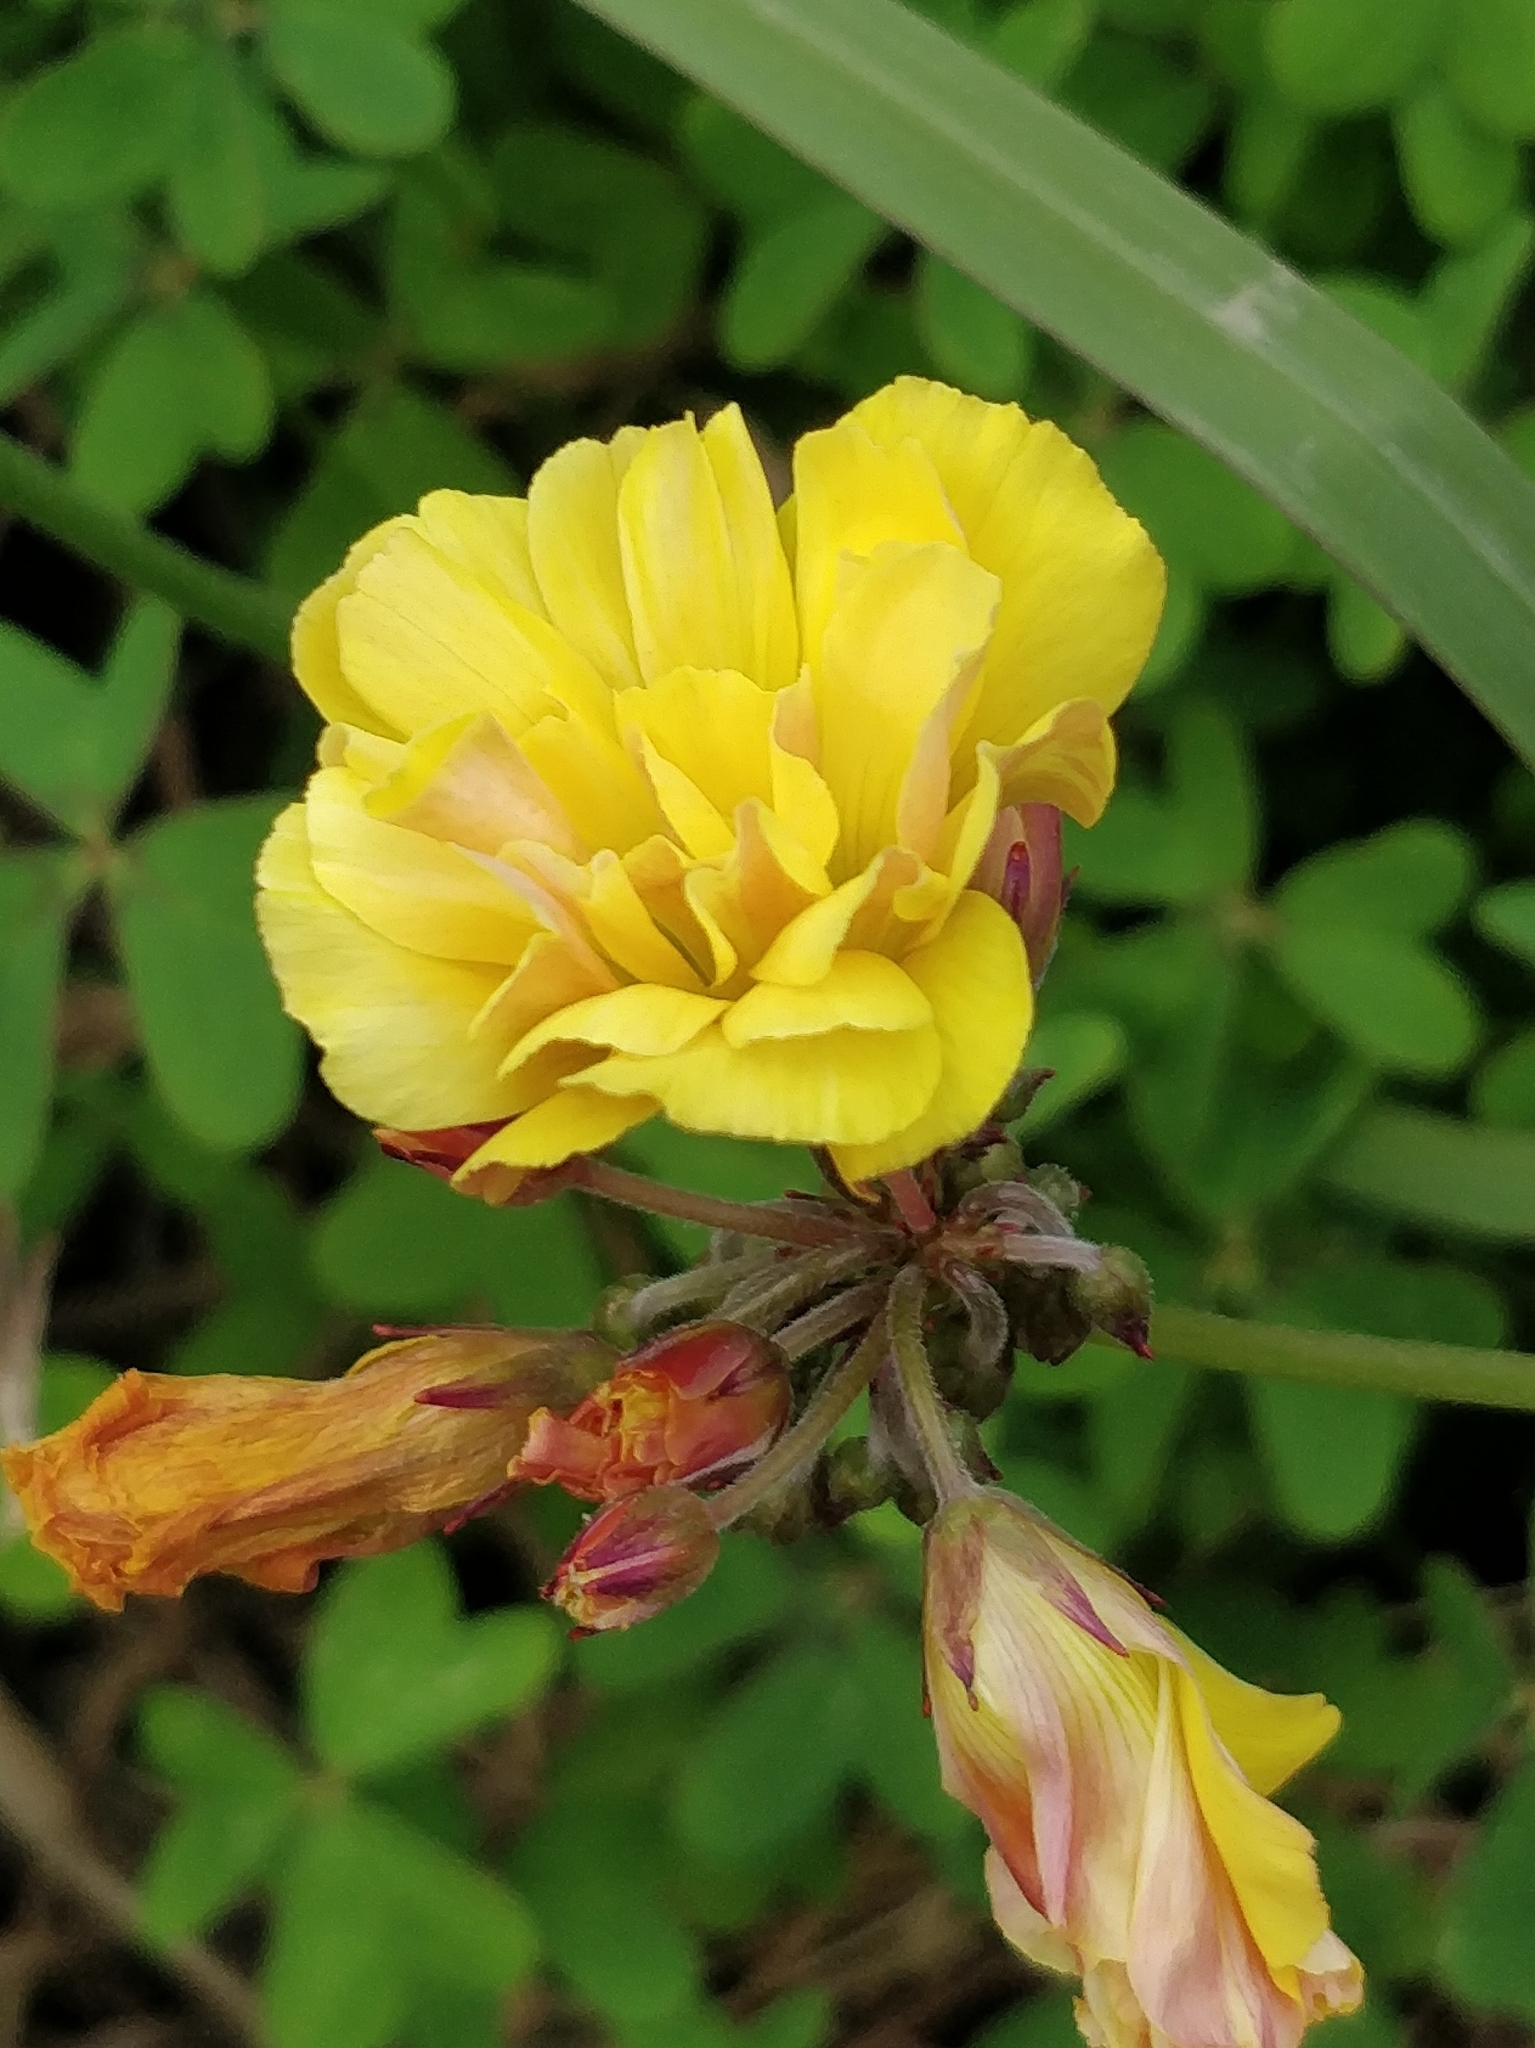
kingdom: Plantae
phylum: Tracheophyta
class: Magnoliopsida
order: Oxalidales
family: Oxalidaceae
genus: Oxalis
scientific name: Oxalis pes-caprae
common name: Bermuda-buttercup
